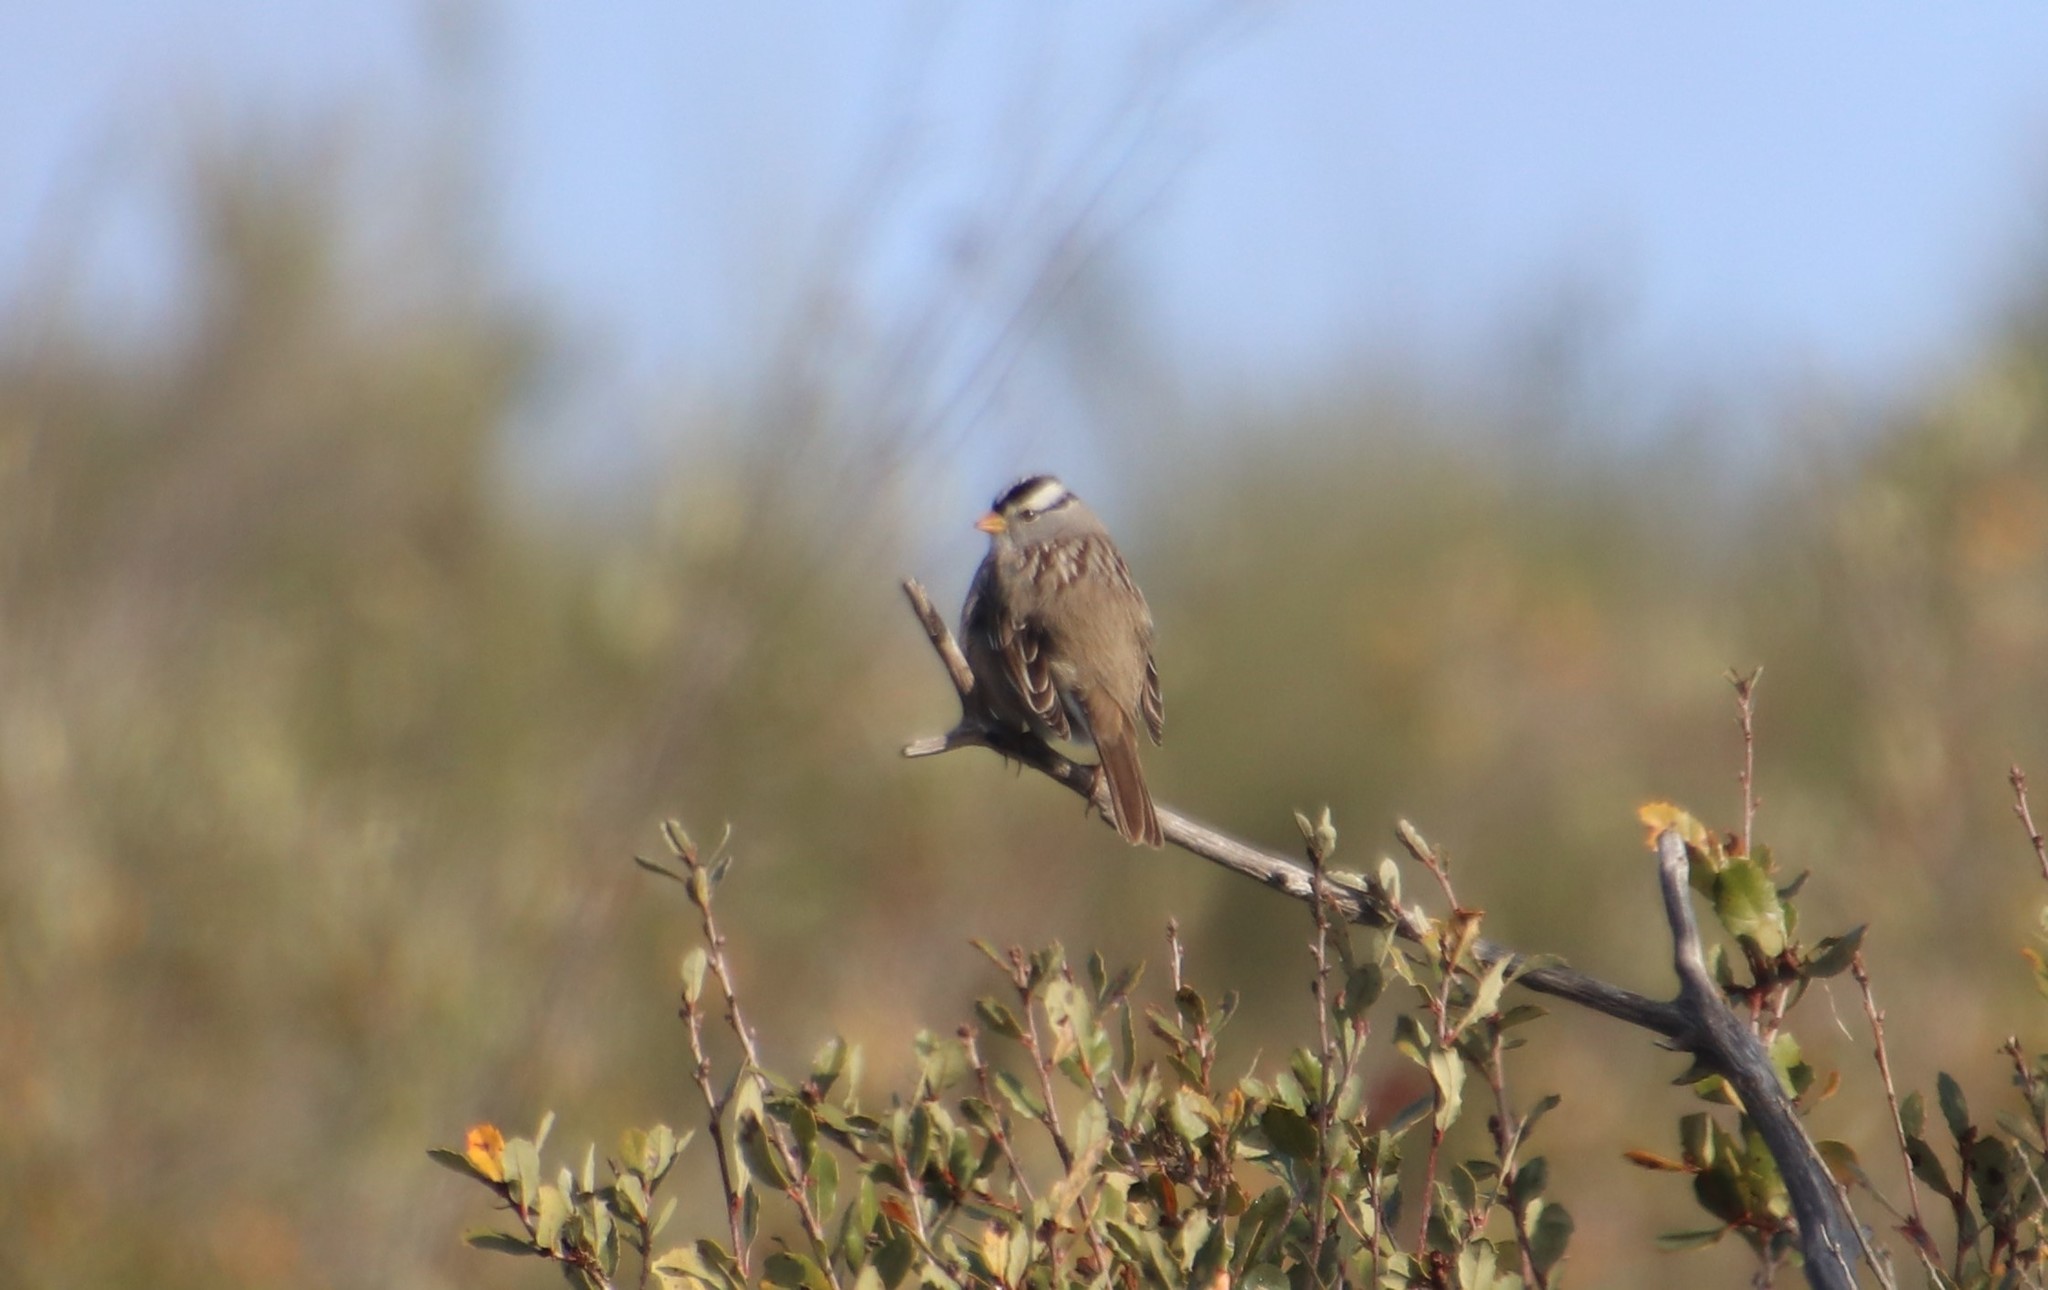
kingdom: Animalia
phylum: Chordata
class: Aves
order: Passeriformes
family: Passerellidae
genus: Zonotrichia
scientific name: Zonotrichia leucophrys
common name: White-crowned sparrow
